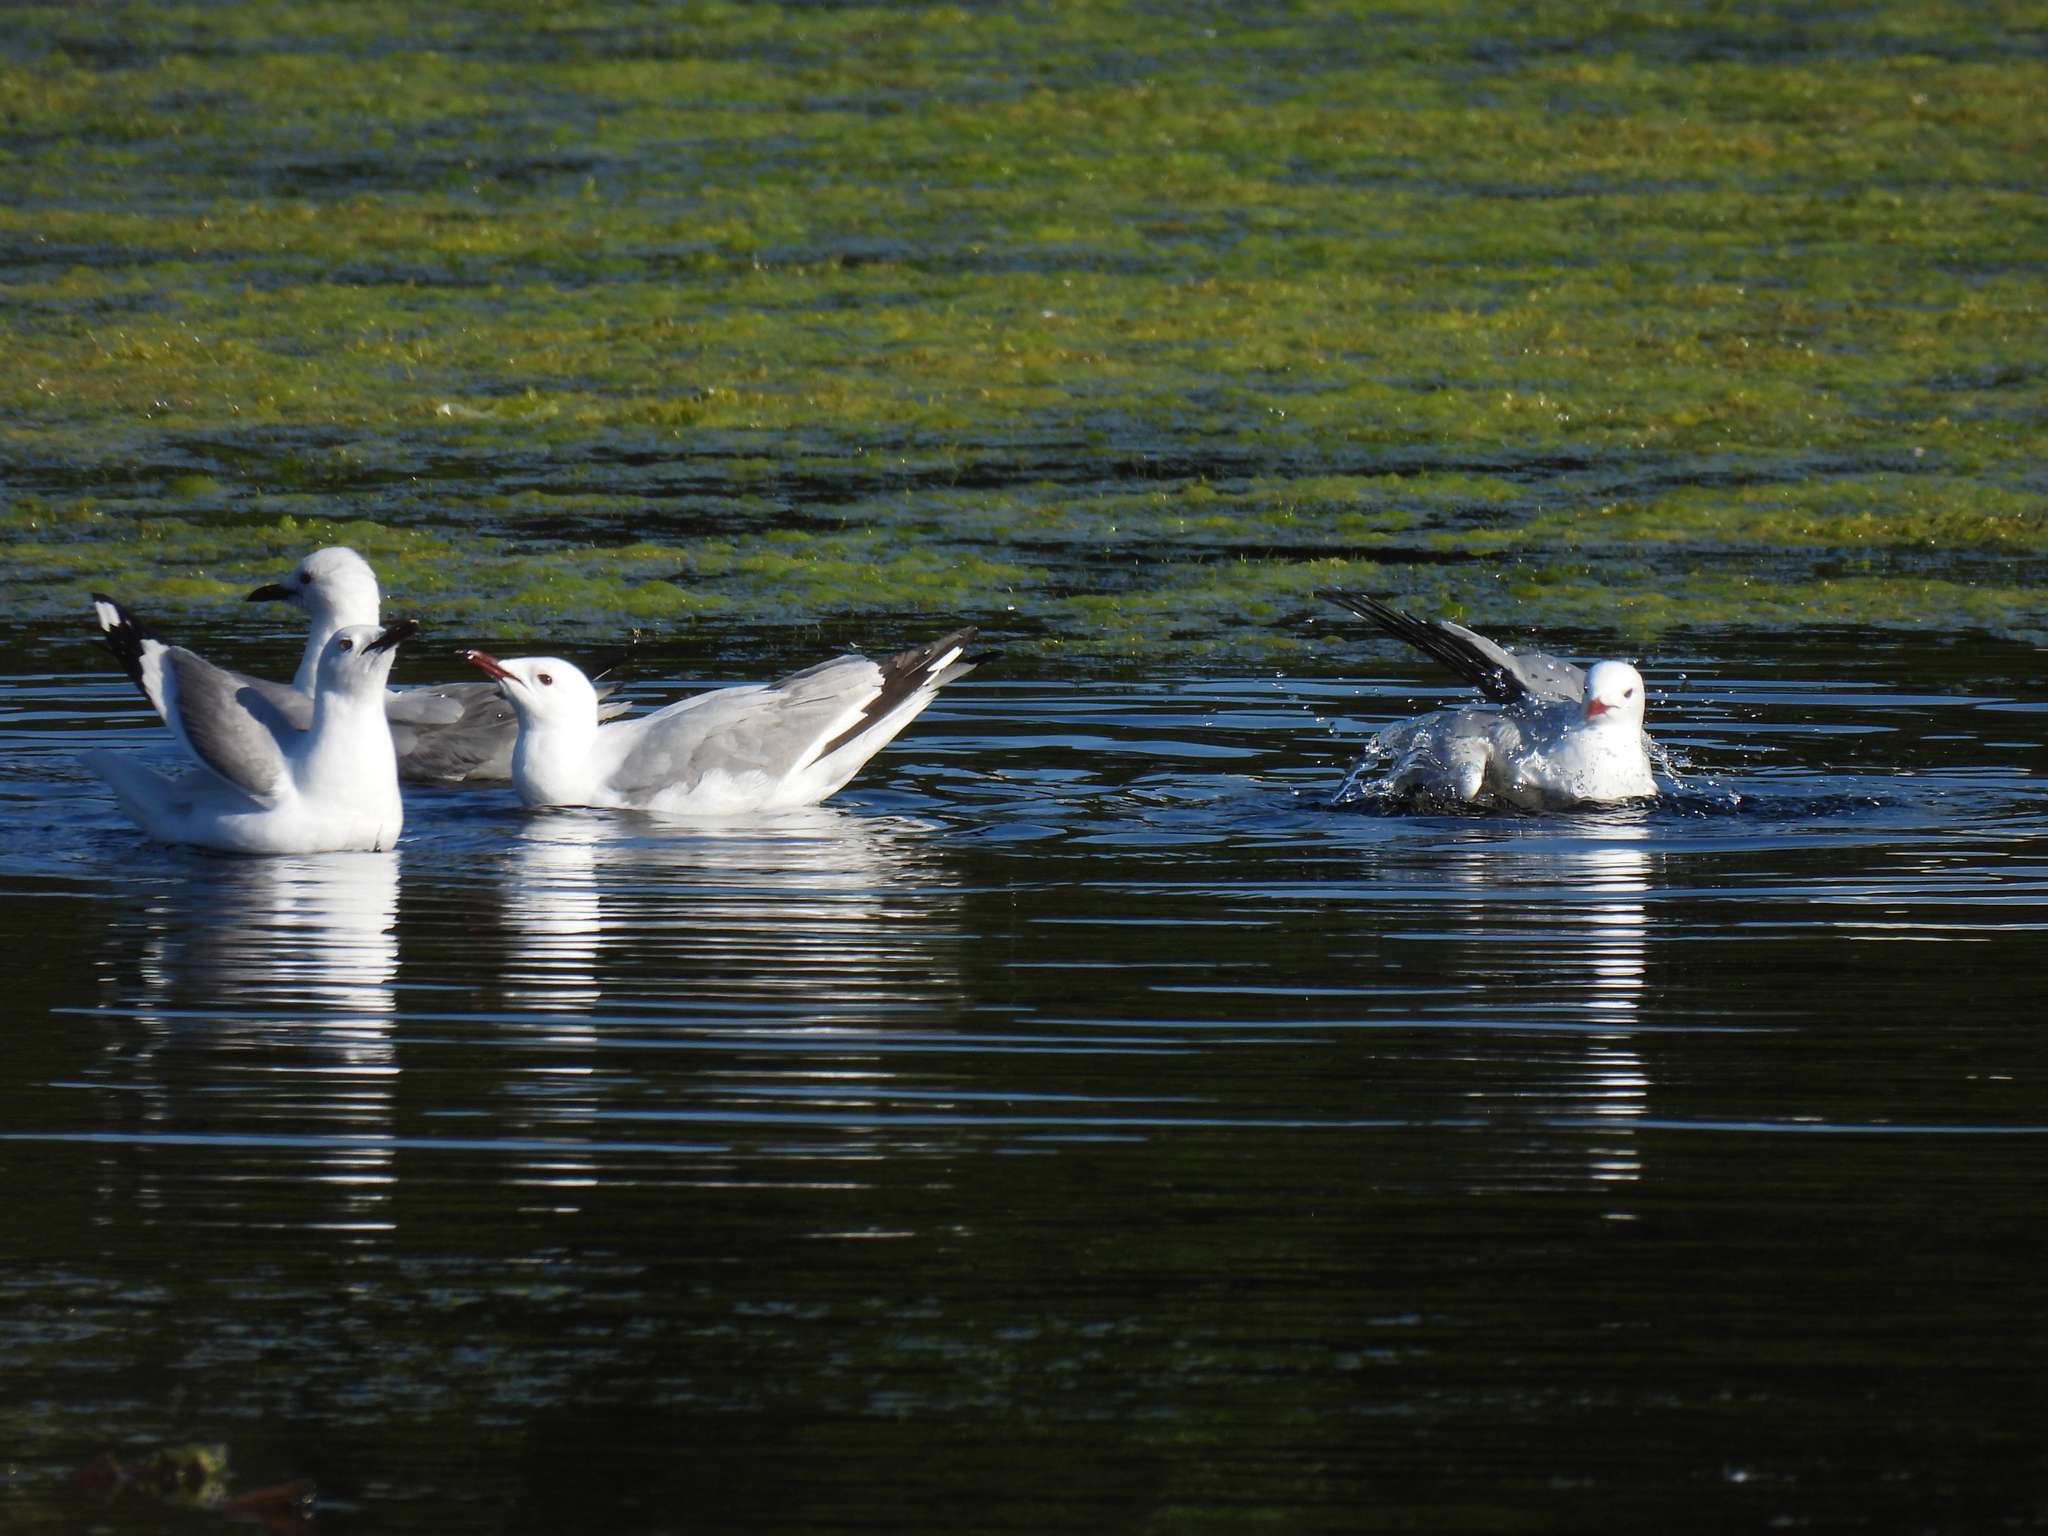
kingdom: Animalia
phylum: Chordata
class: Aves
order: Charadriiformes
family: Laridae
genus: Chroicocephalus
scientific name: Chroicocephalus hartlaubii
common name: Hartlaub's gull
